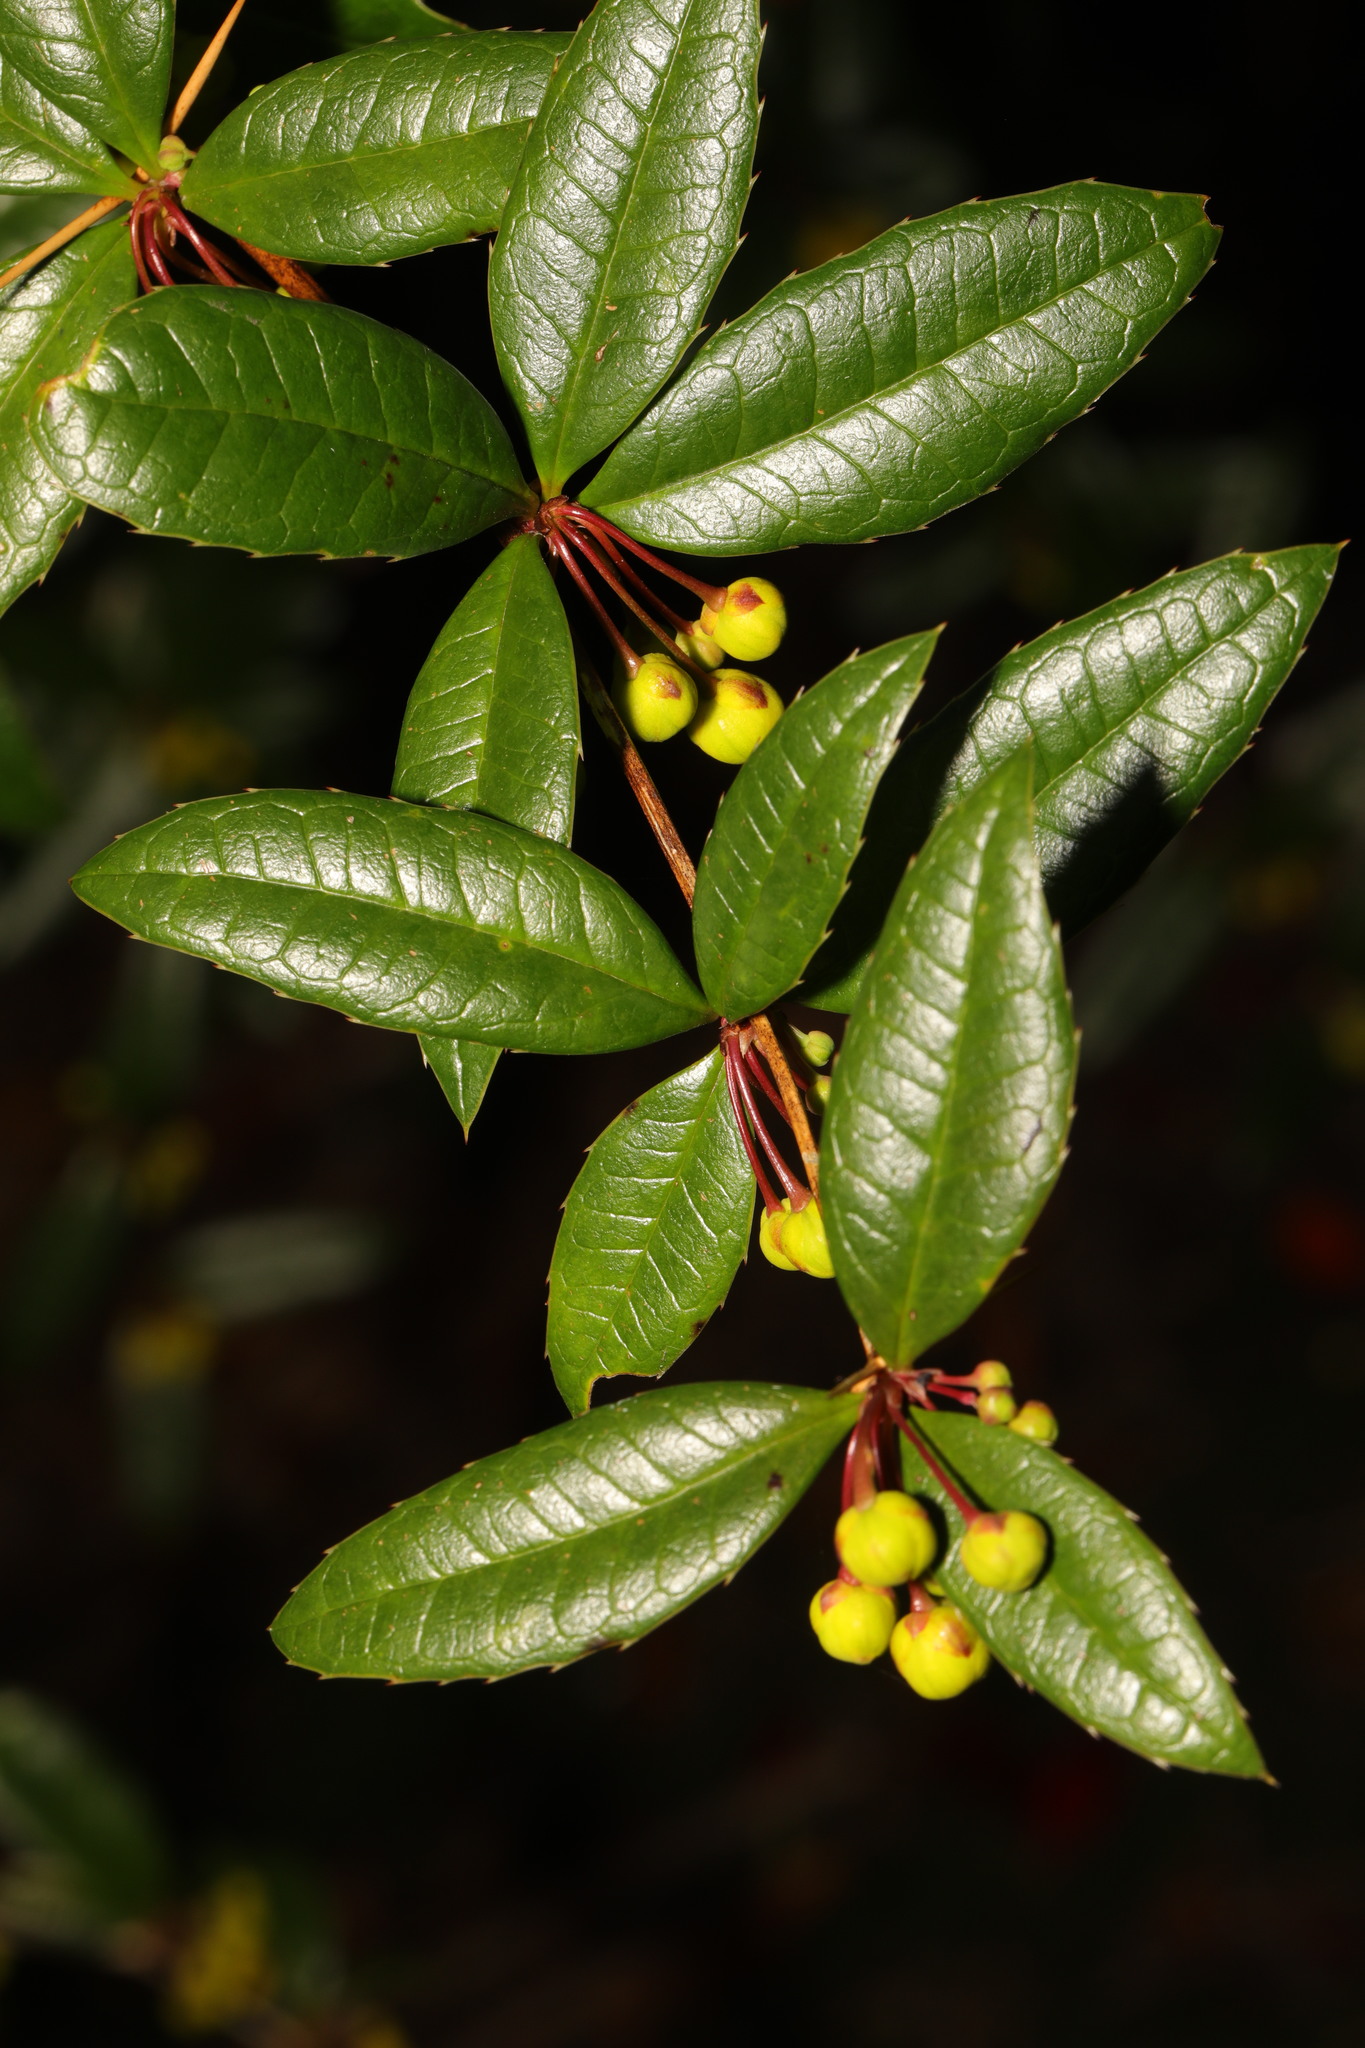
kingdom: Plantae
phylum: Tracheophyta
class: Magnoliopsida
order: Ranunculales
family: Berberidaceae
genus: Berberis
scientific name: Berberis julianae
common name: Wintergreen barberry
